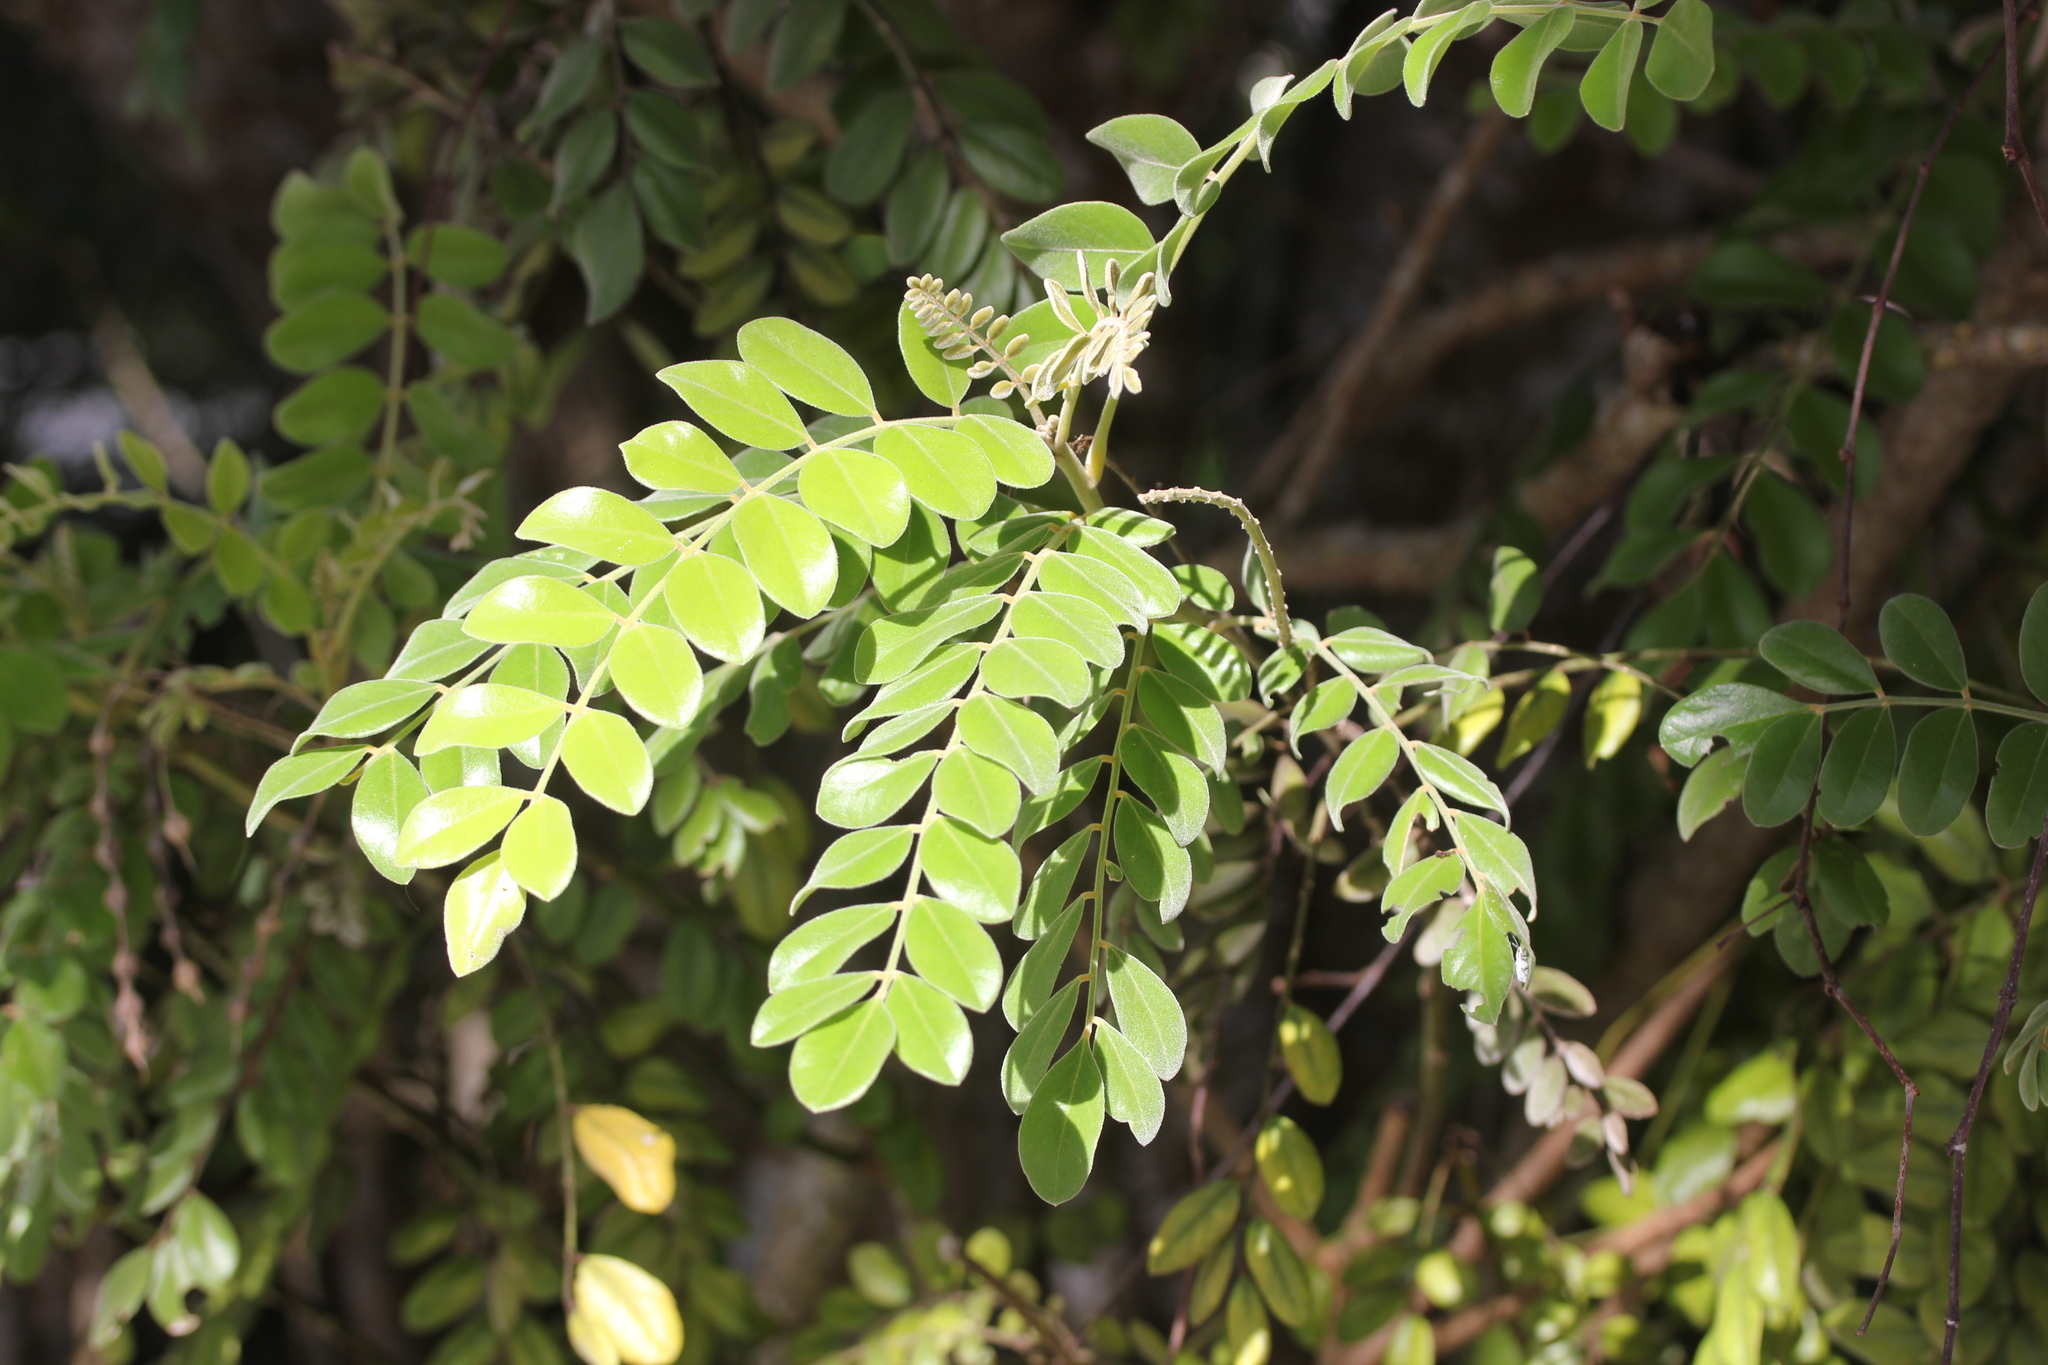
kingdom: Plantae
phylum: Tracheophyta
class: Magnoliopsida
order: Fabales
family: Fabaceae
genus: Sophora
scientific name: Sophora tomentosa
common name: Yellow necklacepod
